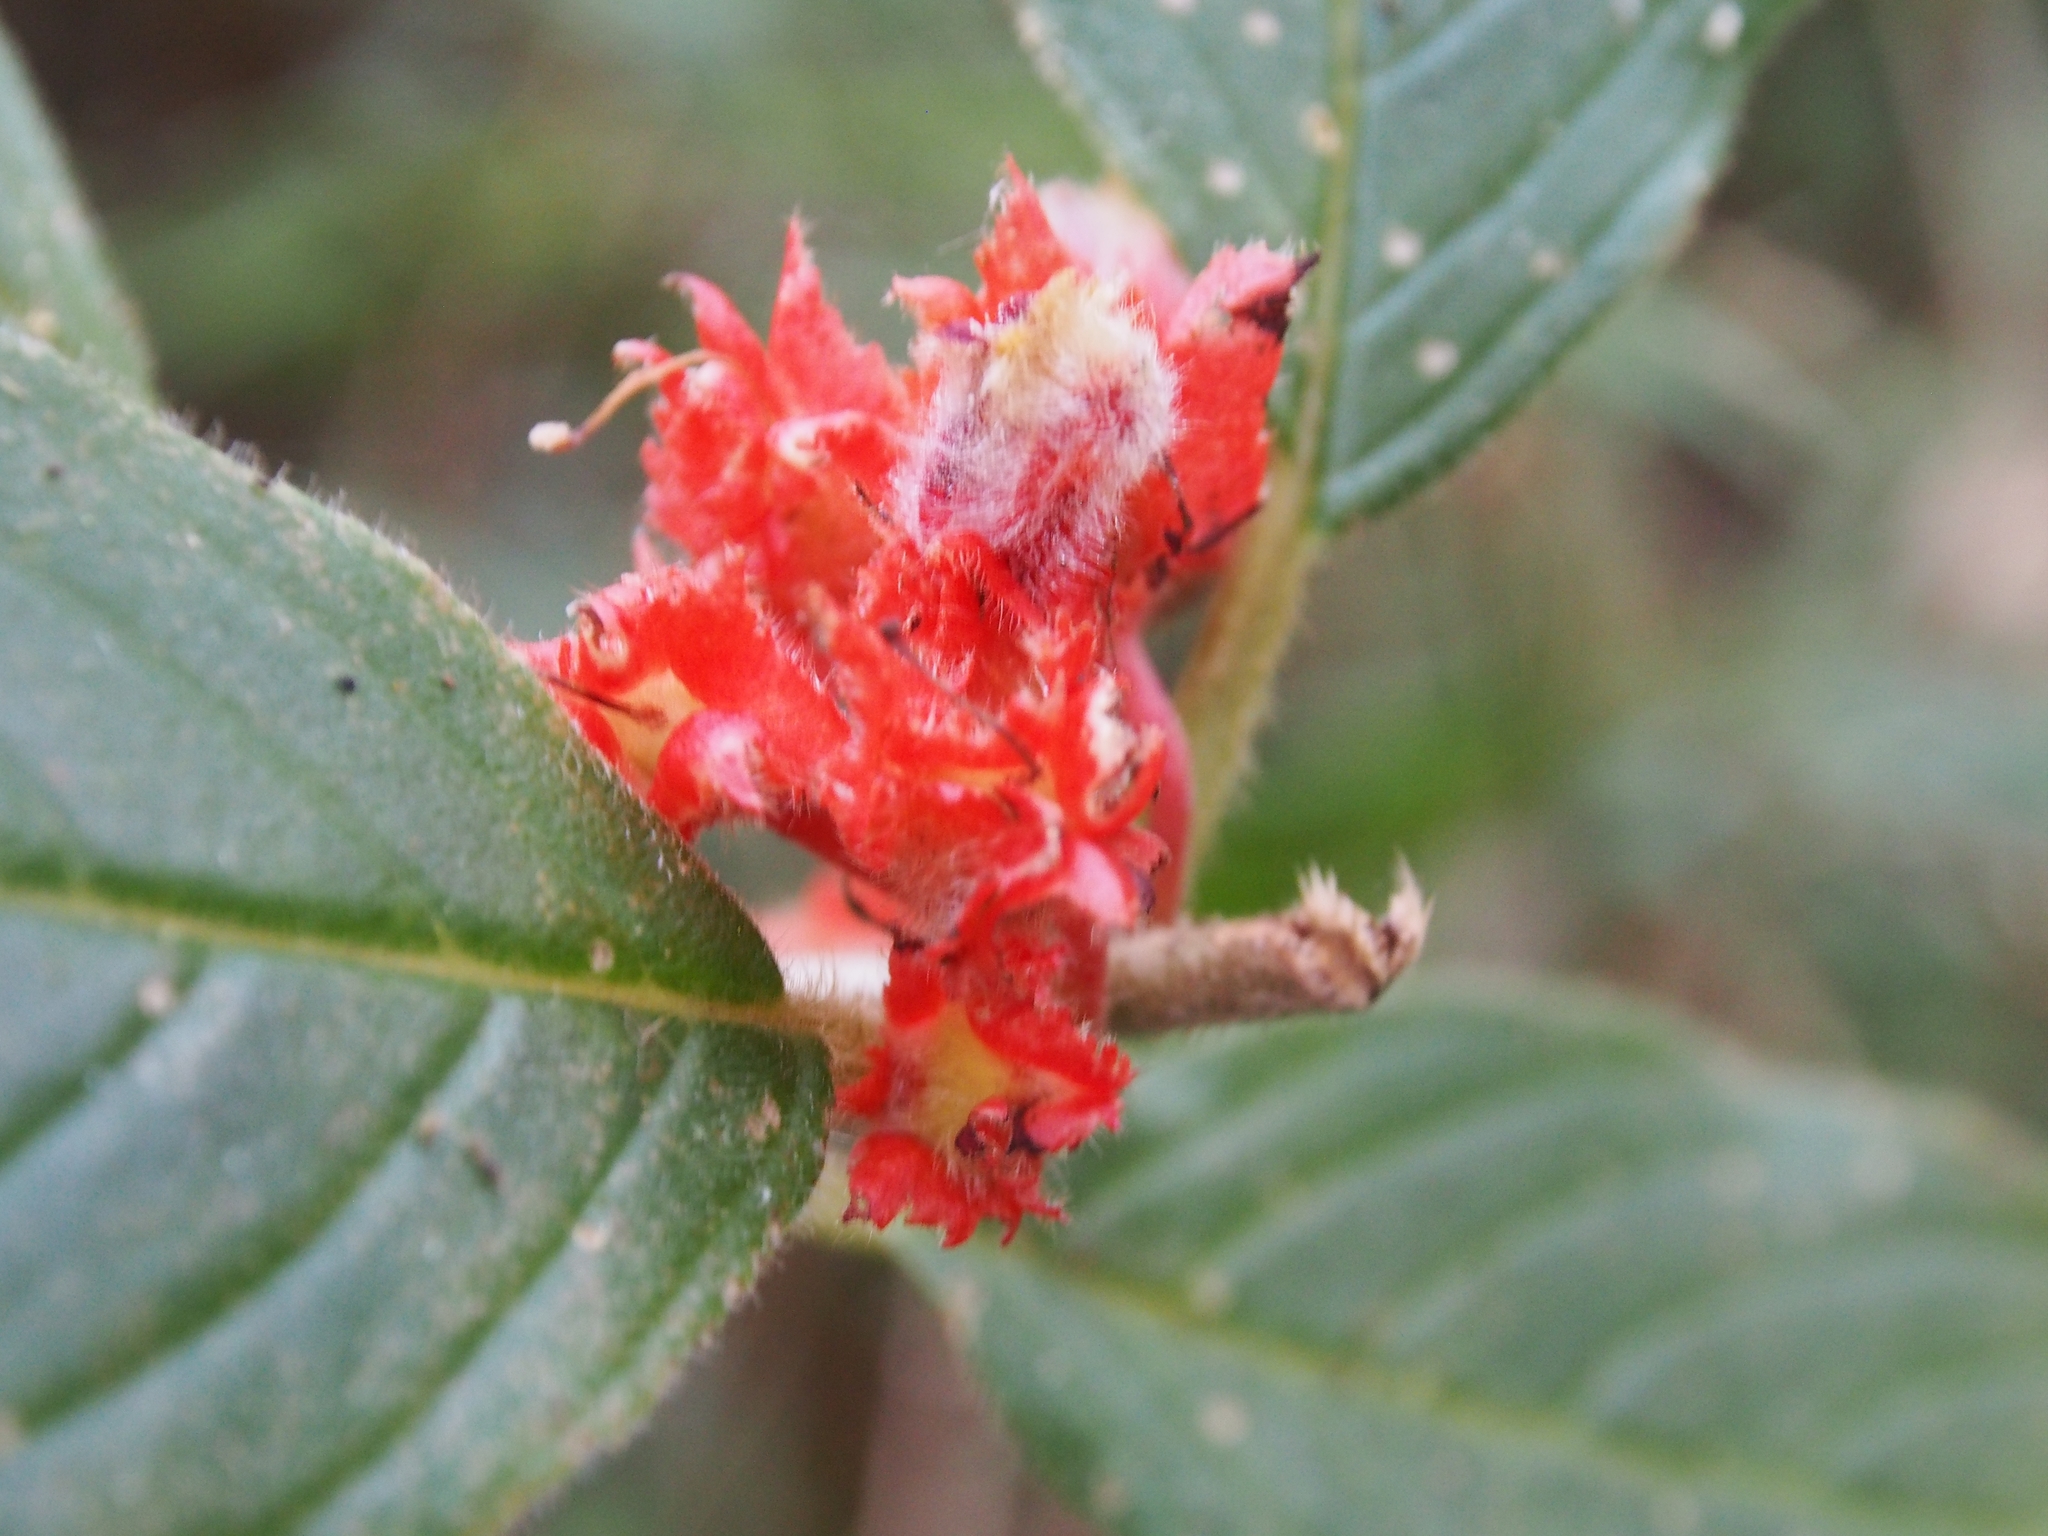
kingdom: Plantae
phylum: Tracheophyta
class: Magnoliopsida
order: Lamiales
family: Gesneriaceae
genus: Glossoloma
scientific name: Glossoloma ichthyoderma
